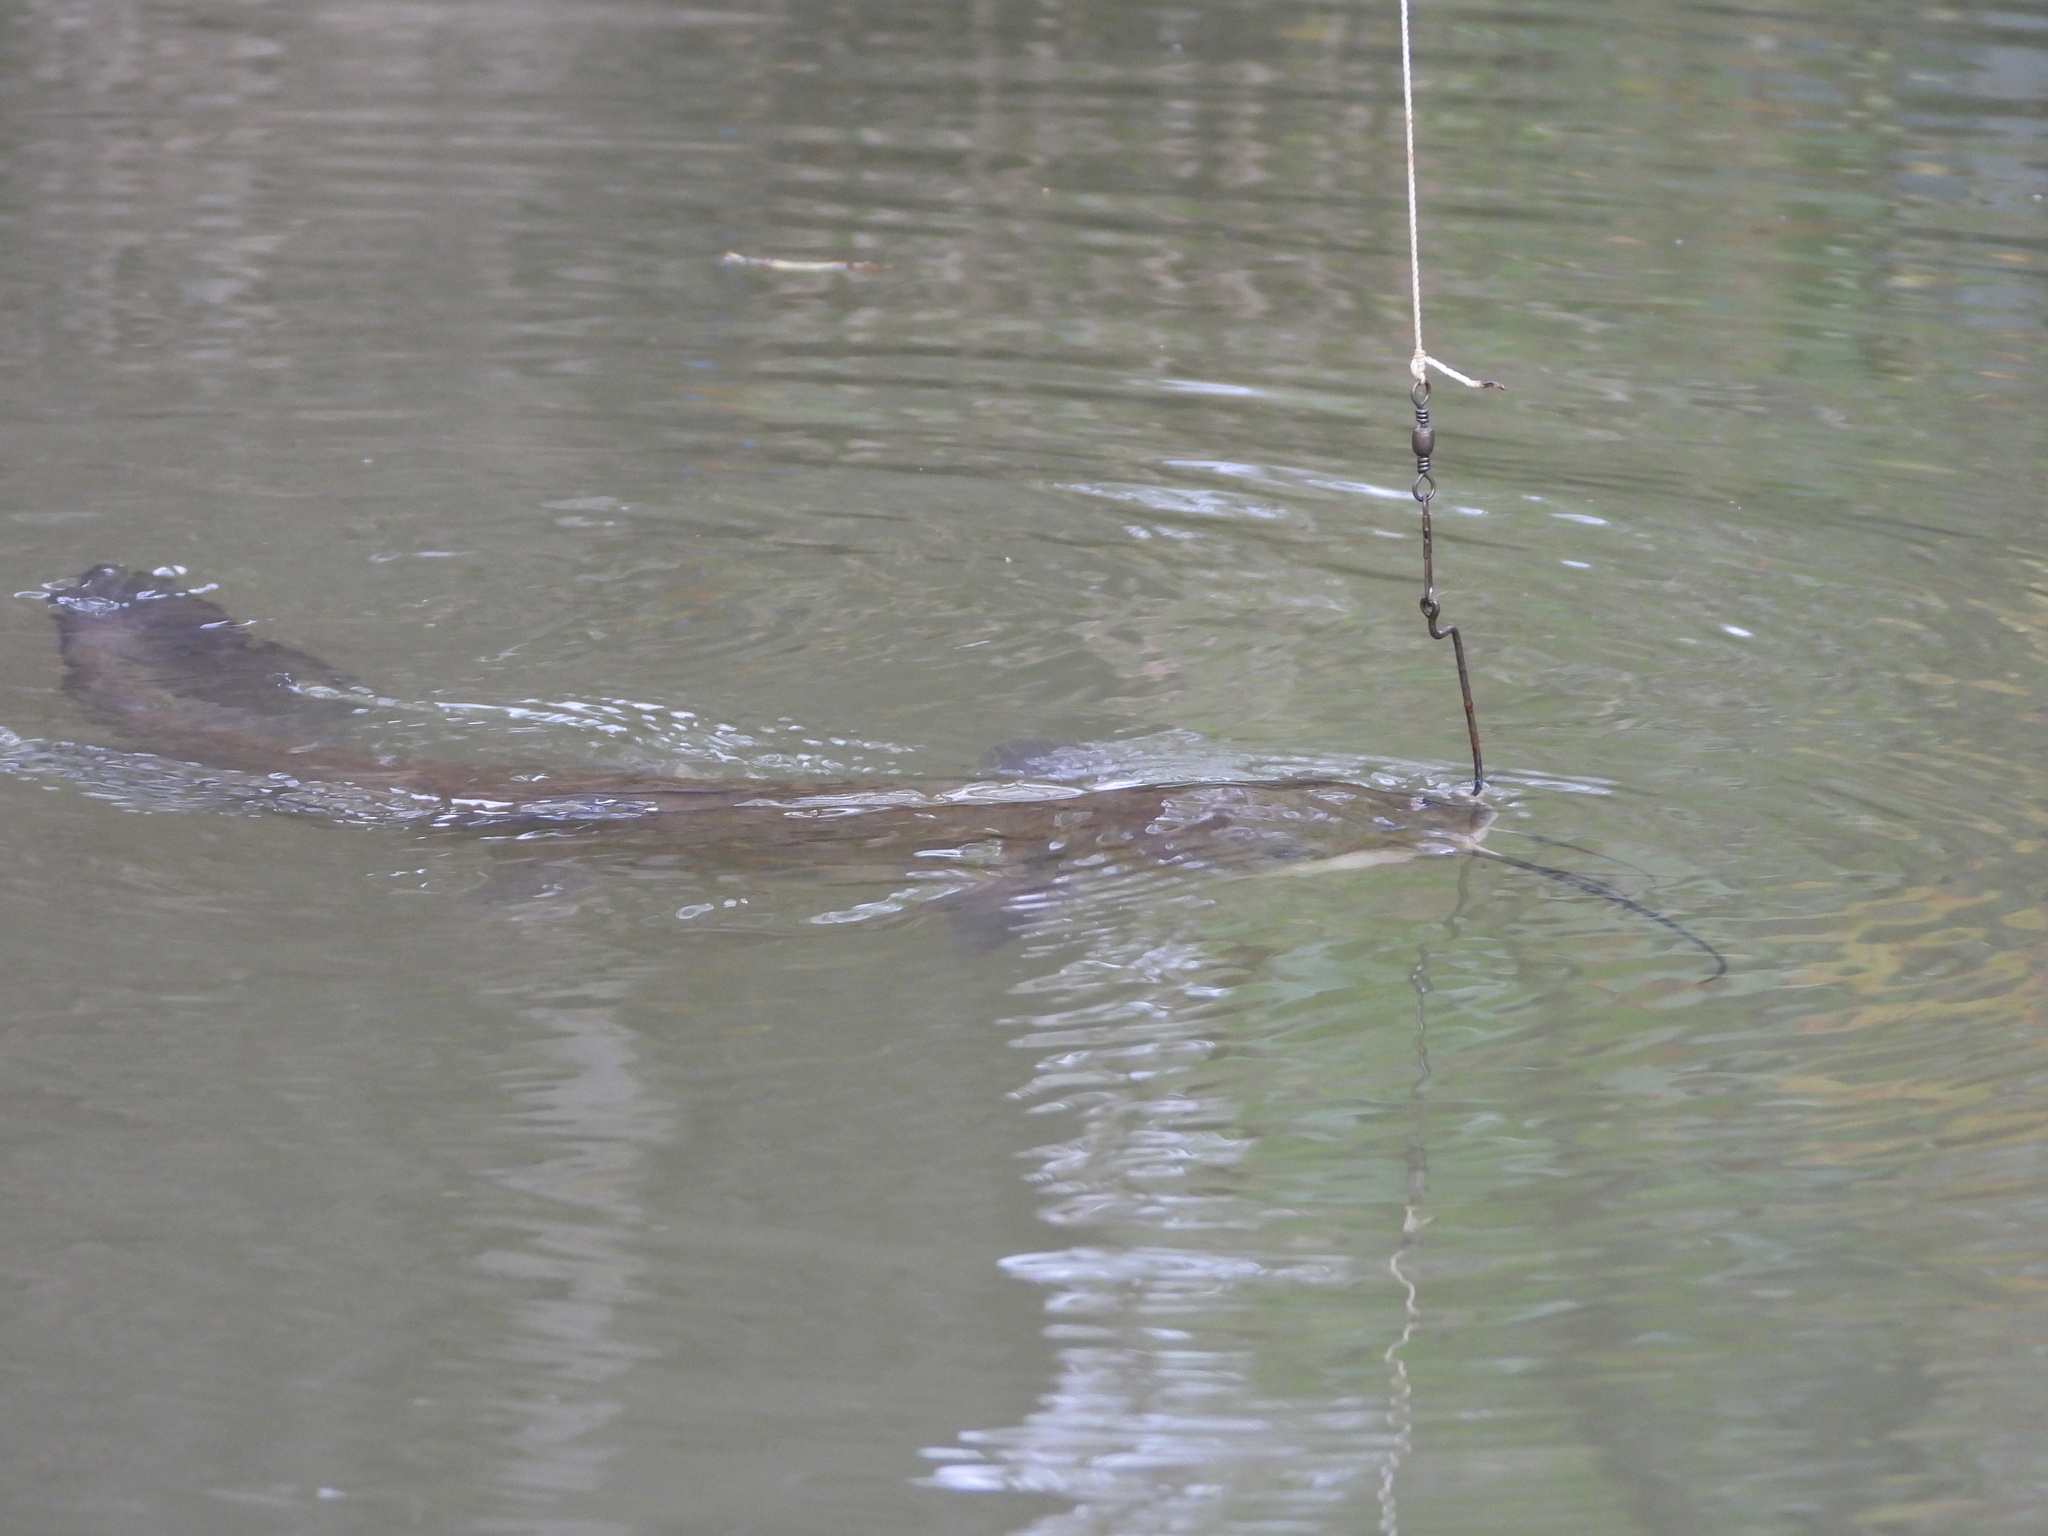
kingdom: Animalia
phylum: Chordata
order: Siluriformes
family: Ictaluridae
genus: Ictalurus
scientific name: Ictalurus punctatus
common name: Channel catfish
